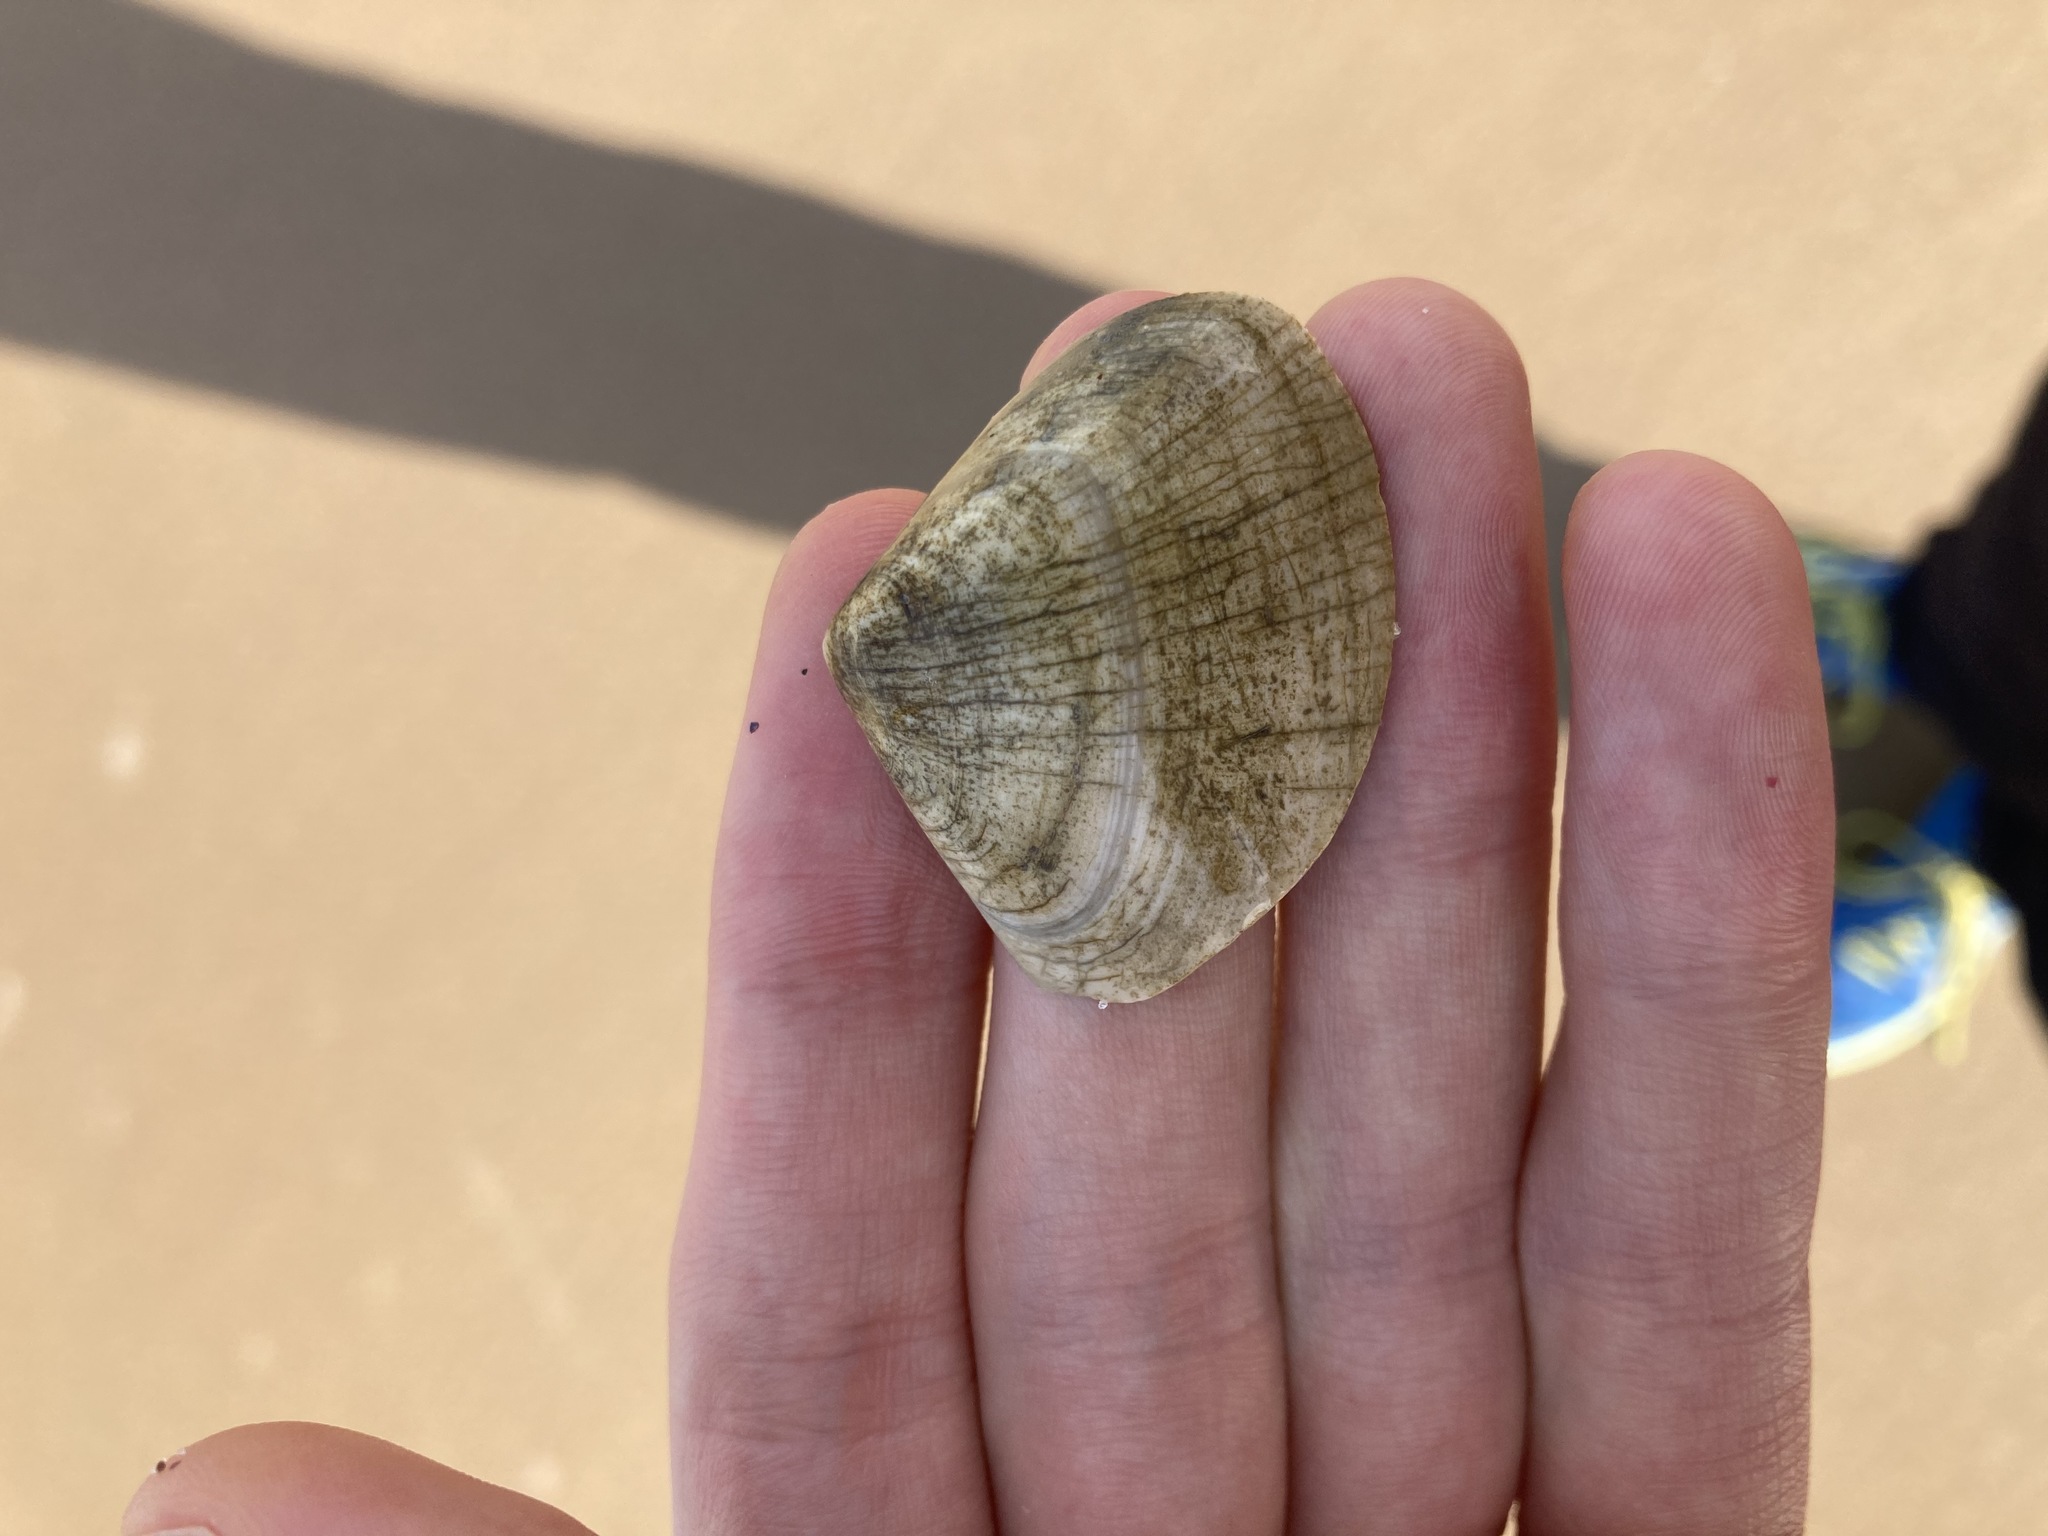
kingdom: Animalia
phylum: Mollusca
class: Bivalvia
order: Cardiida
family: Donacidae
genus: Latona
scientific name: Latona deltoides
